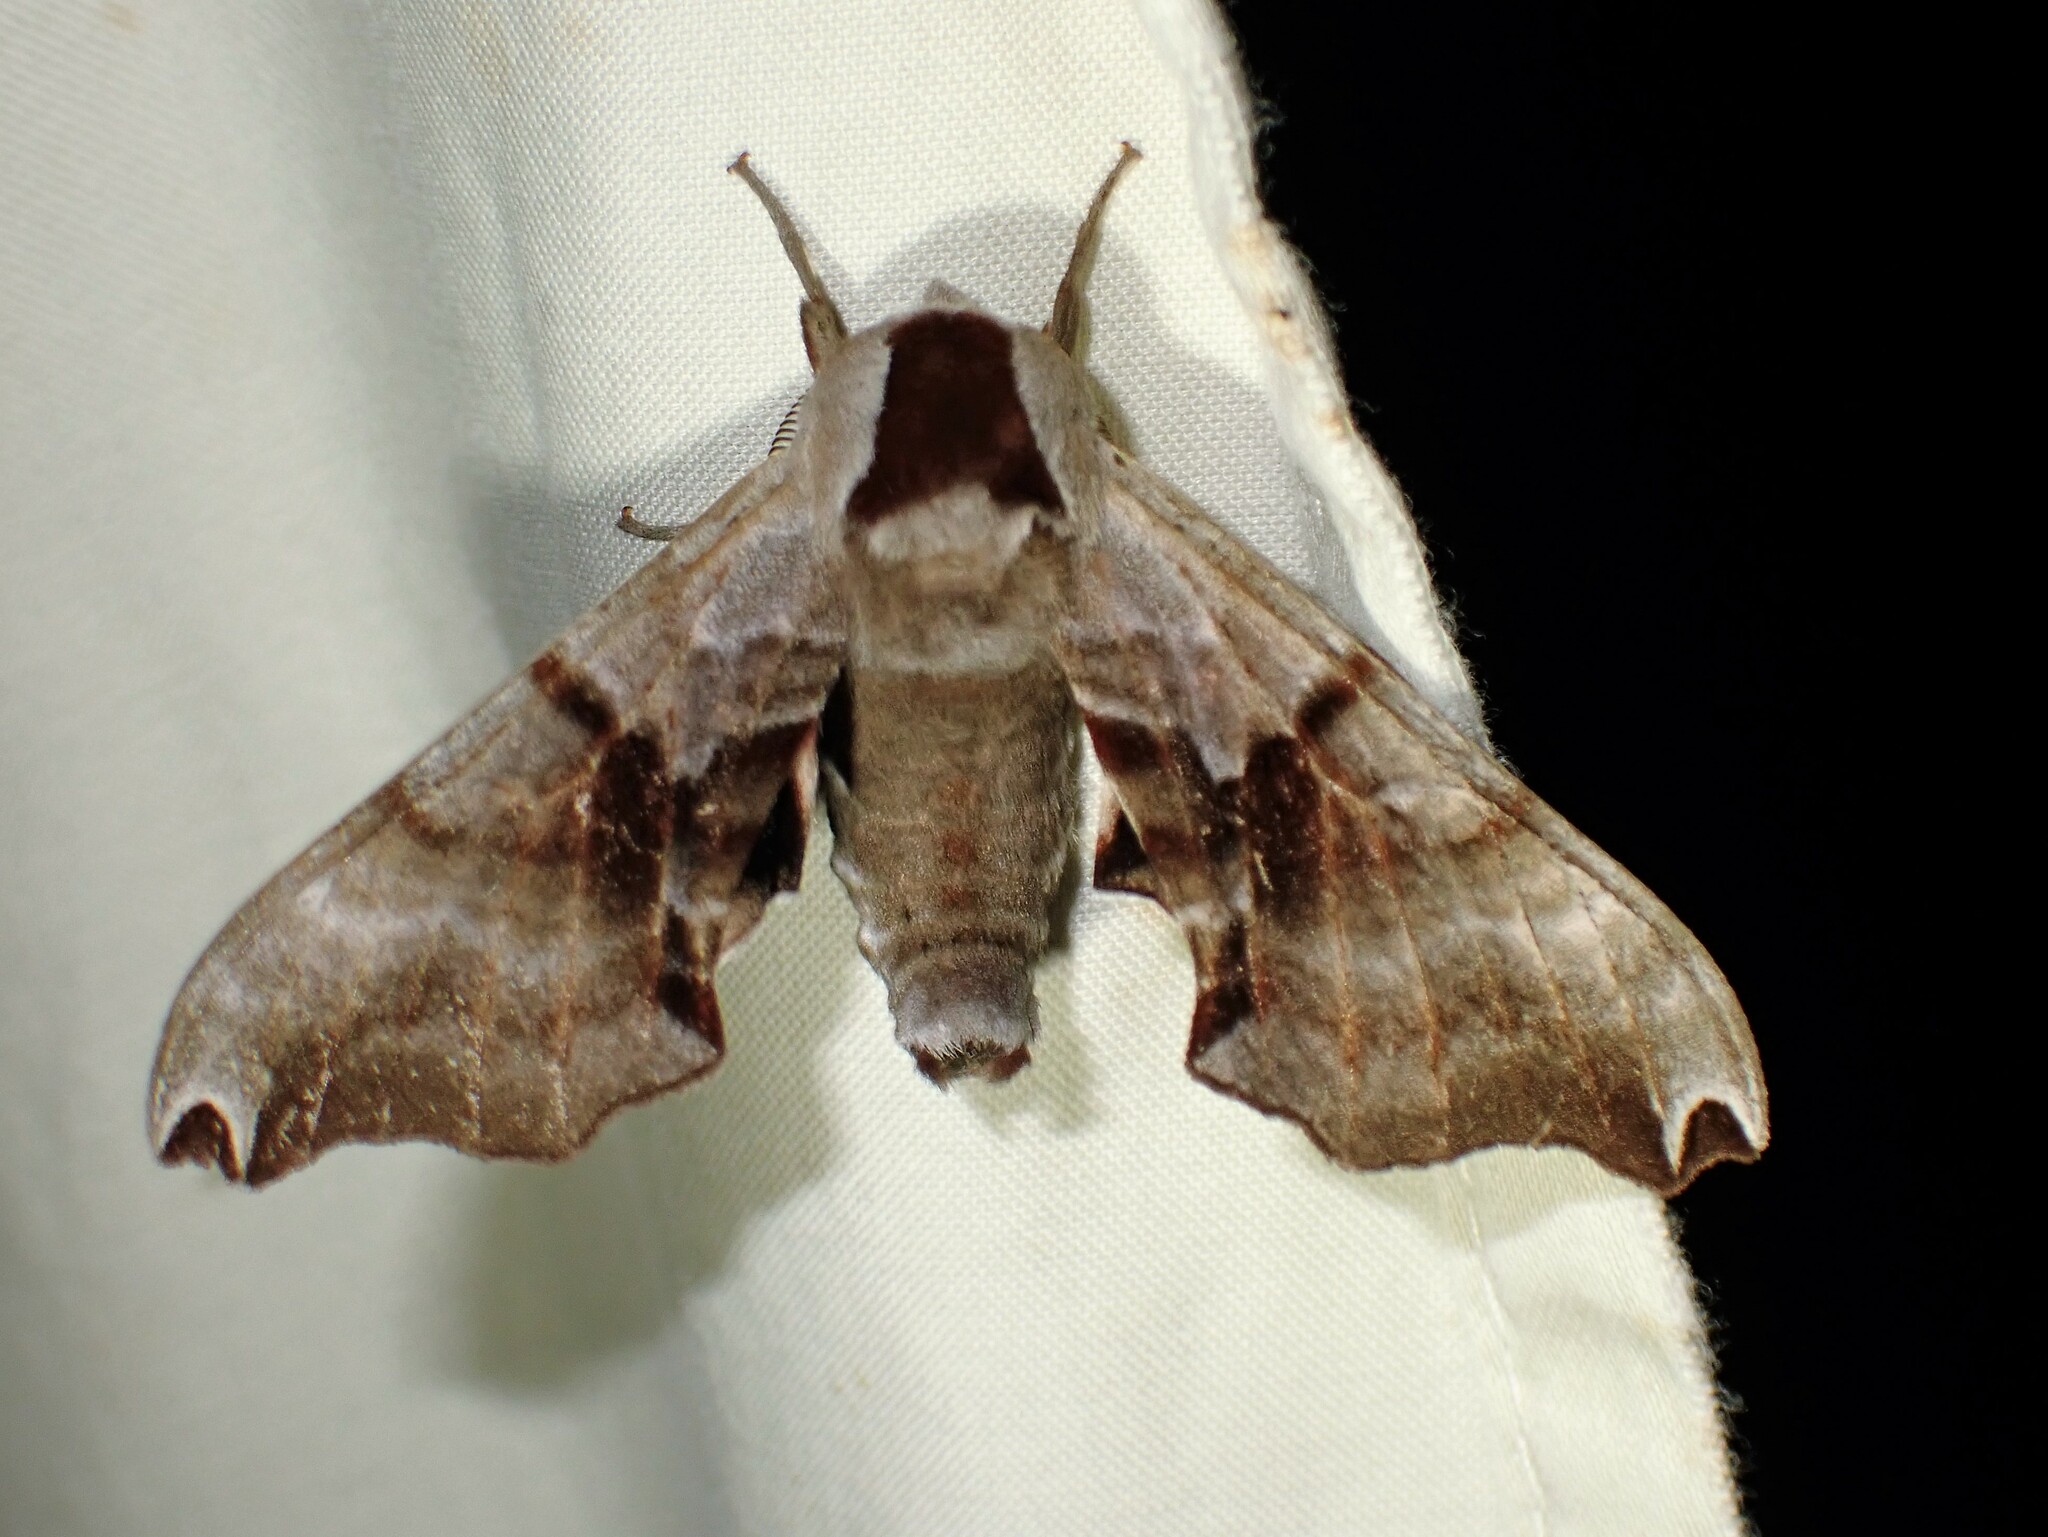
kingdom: Animalia
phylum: Arthropoda
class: Insecta
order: Lepidoptera
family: Sphingidae
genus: Smerinthus
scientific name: Smerinthus jamaicensis
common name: Twin spotted sphinx
